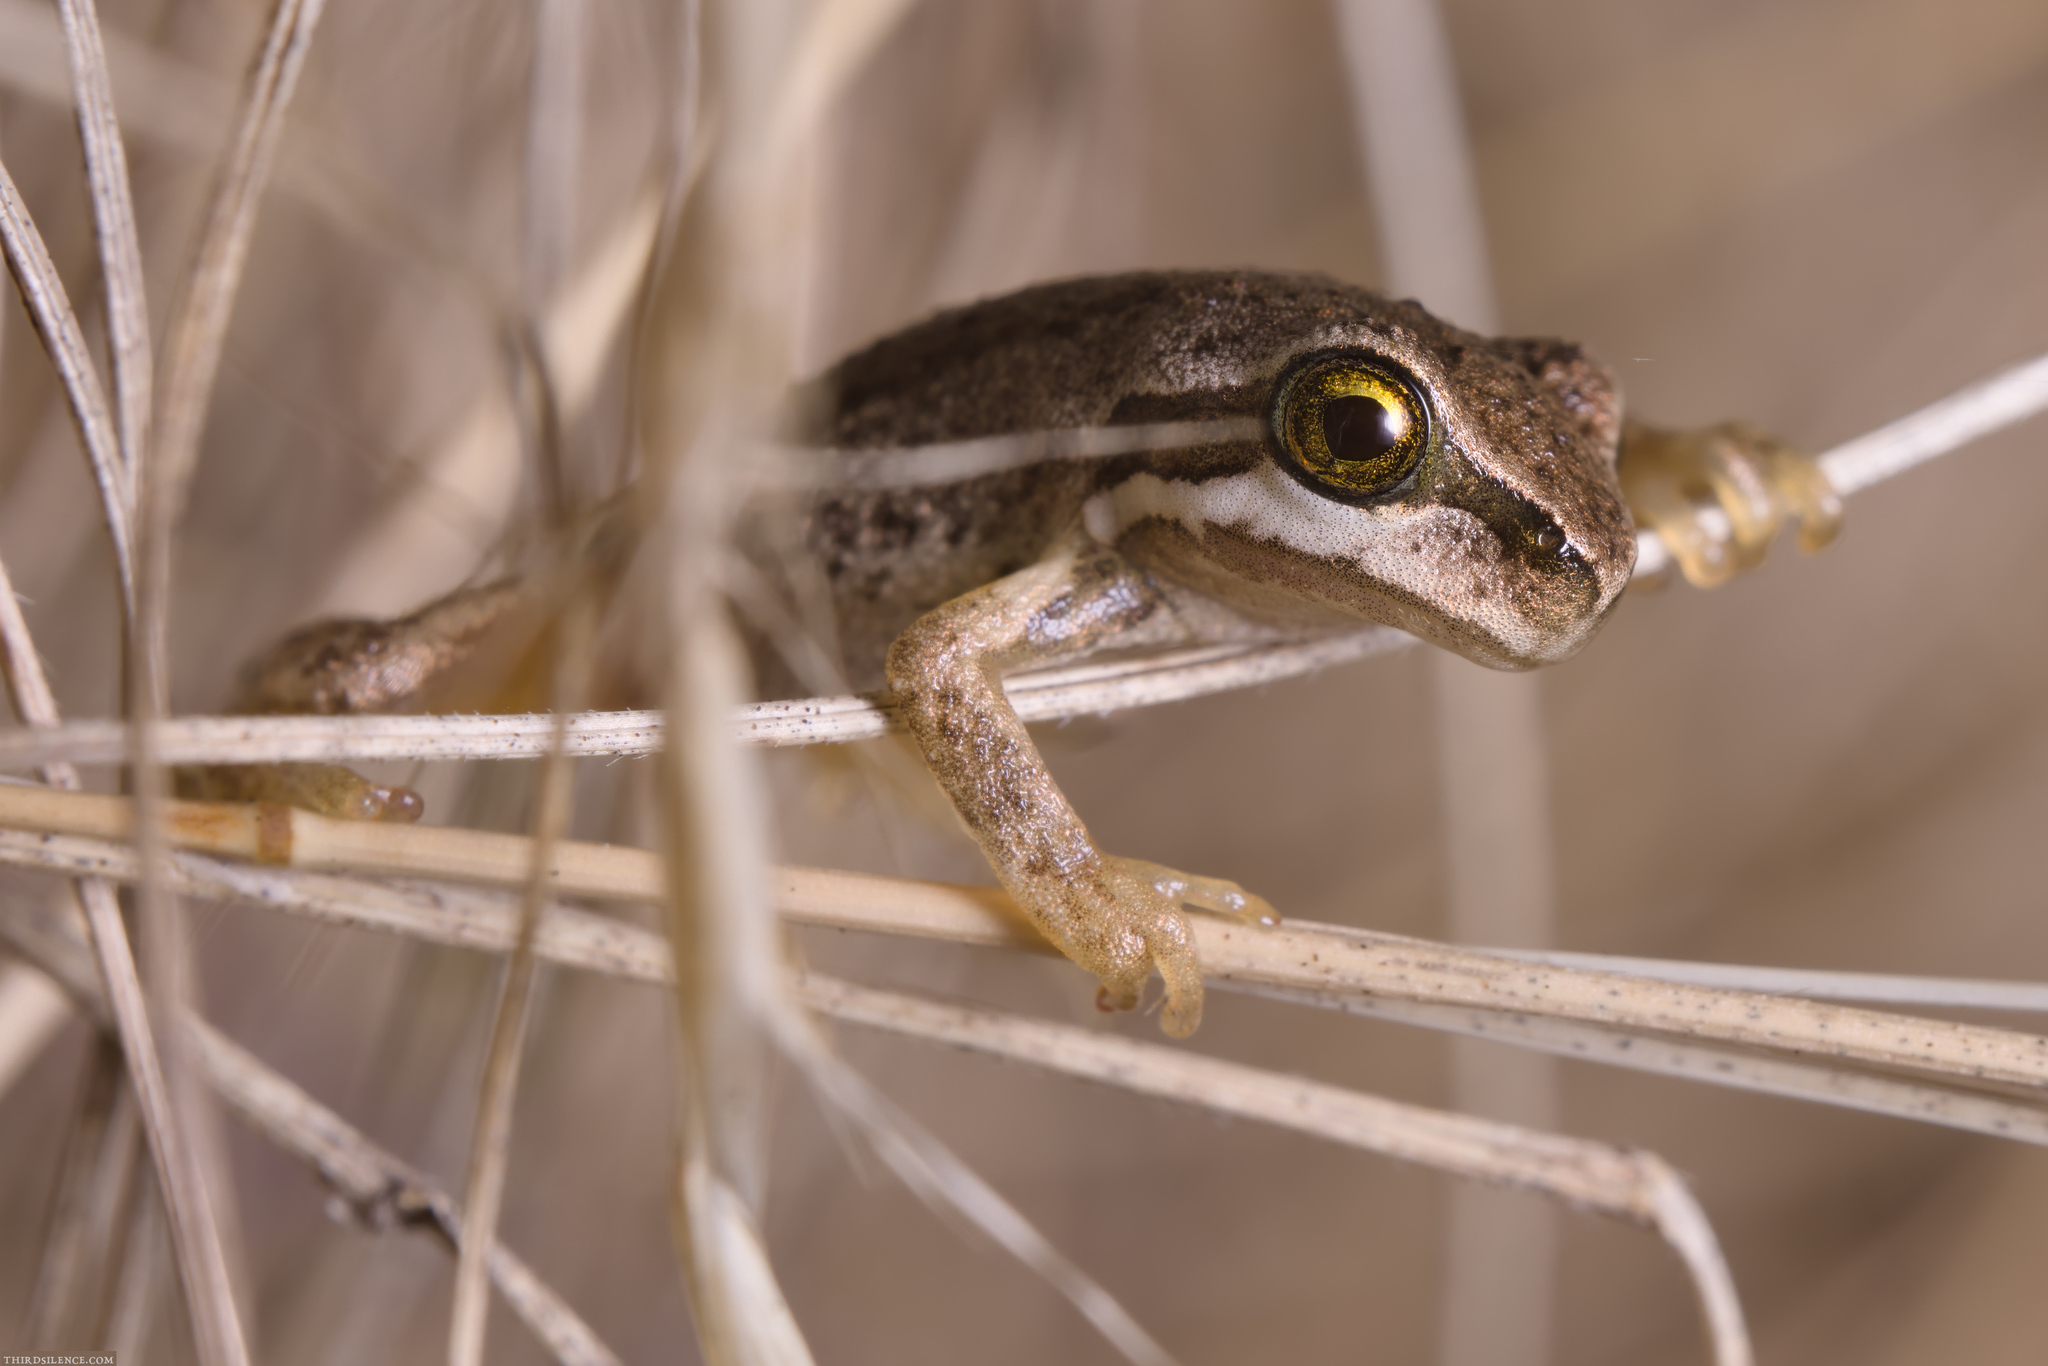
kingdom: Animalia
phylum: Chordata
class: Amphibia
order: Anura
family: Pelodryadidae
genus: Litoria
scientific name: Litoria ewingii
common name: Southern brown tree frog
